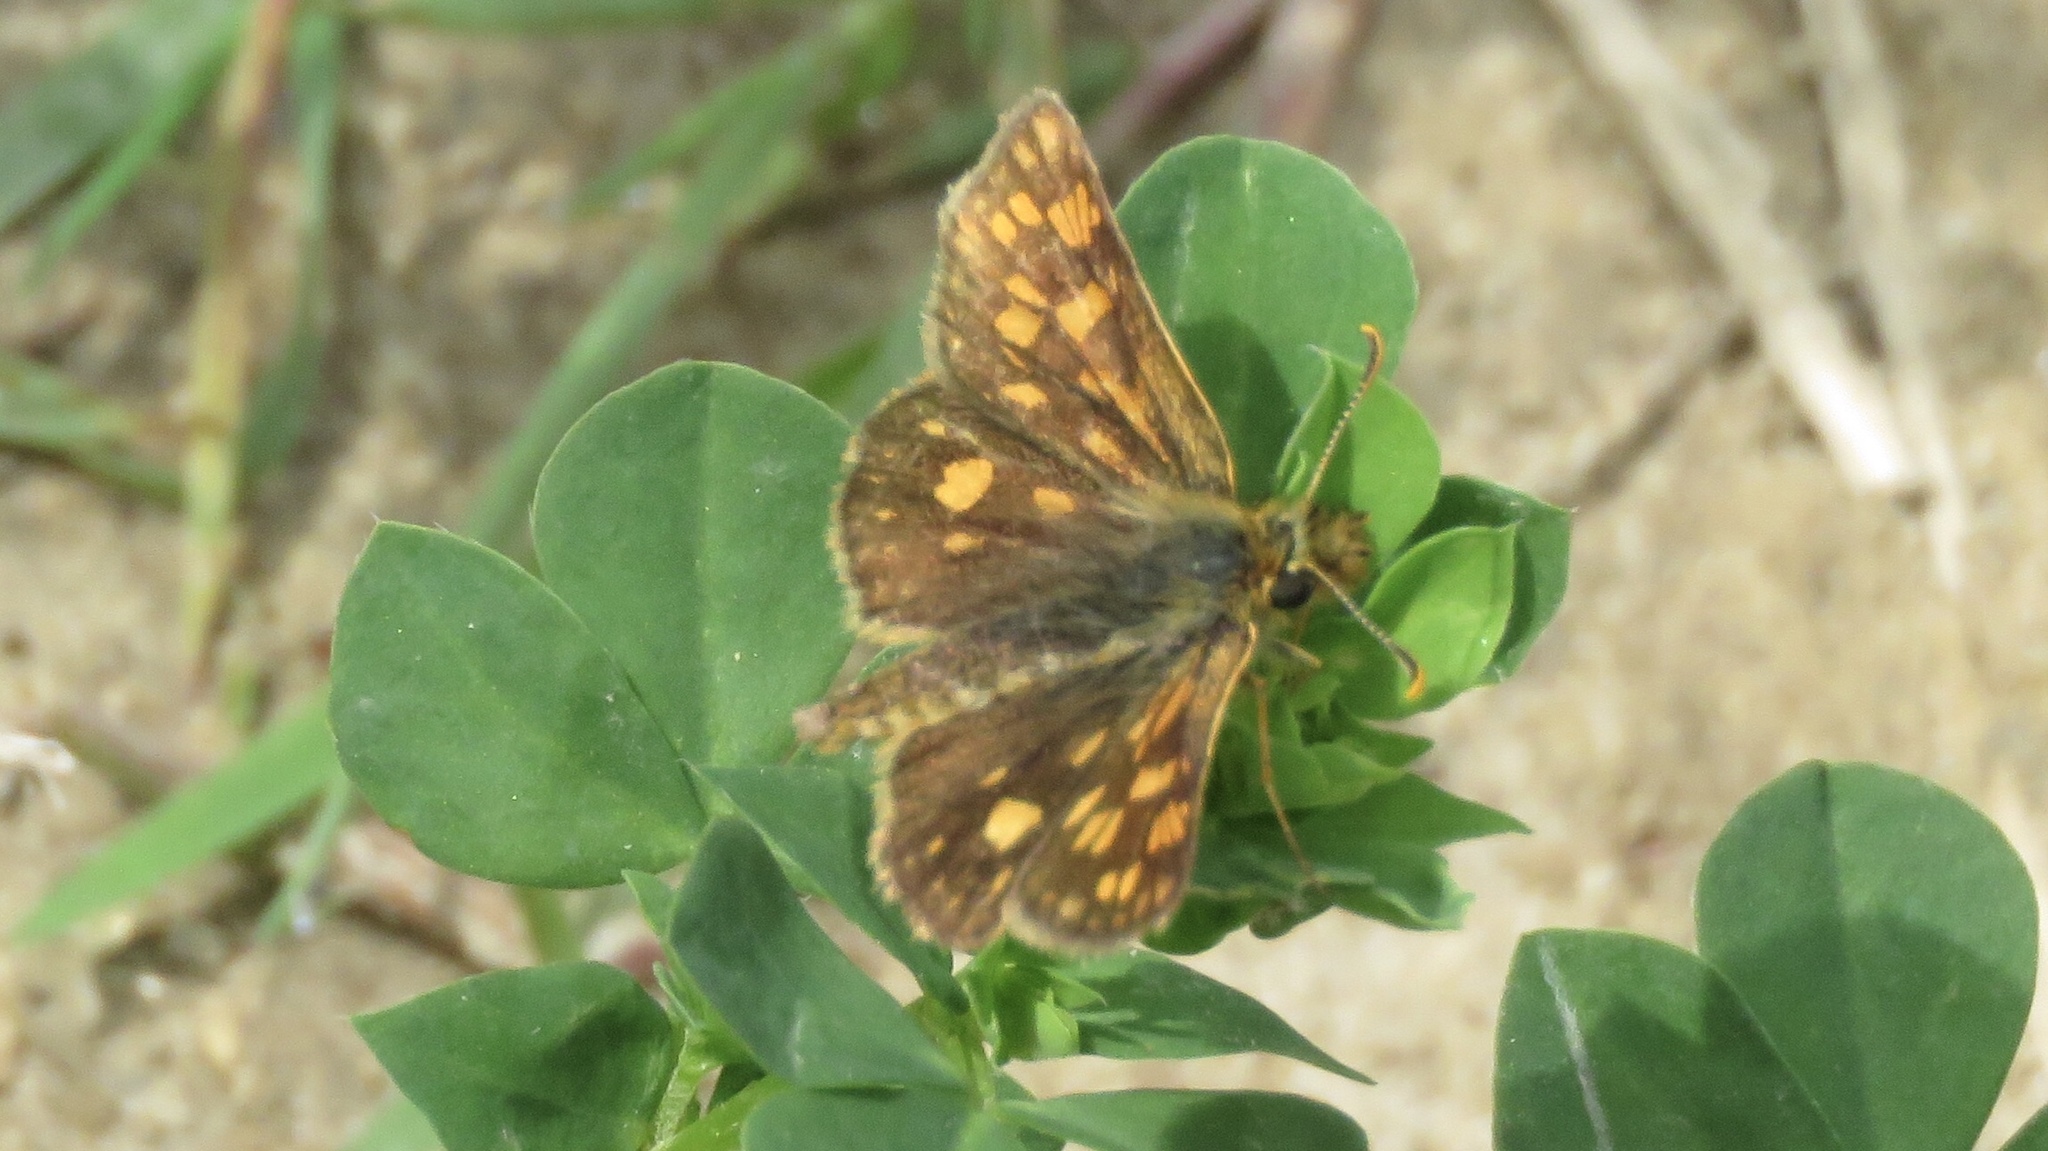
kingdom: Animalia
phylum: Arthropoda
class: Insecta
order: Lepidoptera
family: Hesperiidae
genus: Carterocephalus
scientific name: Carterocephalus mandan
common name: Arctic skipperling
